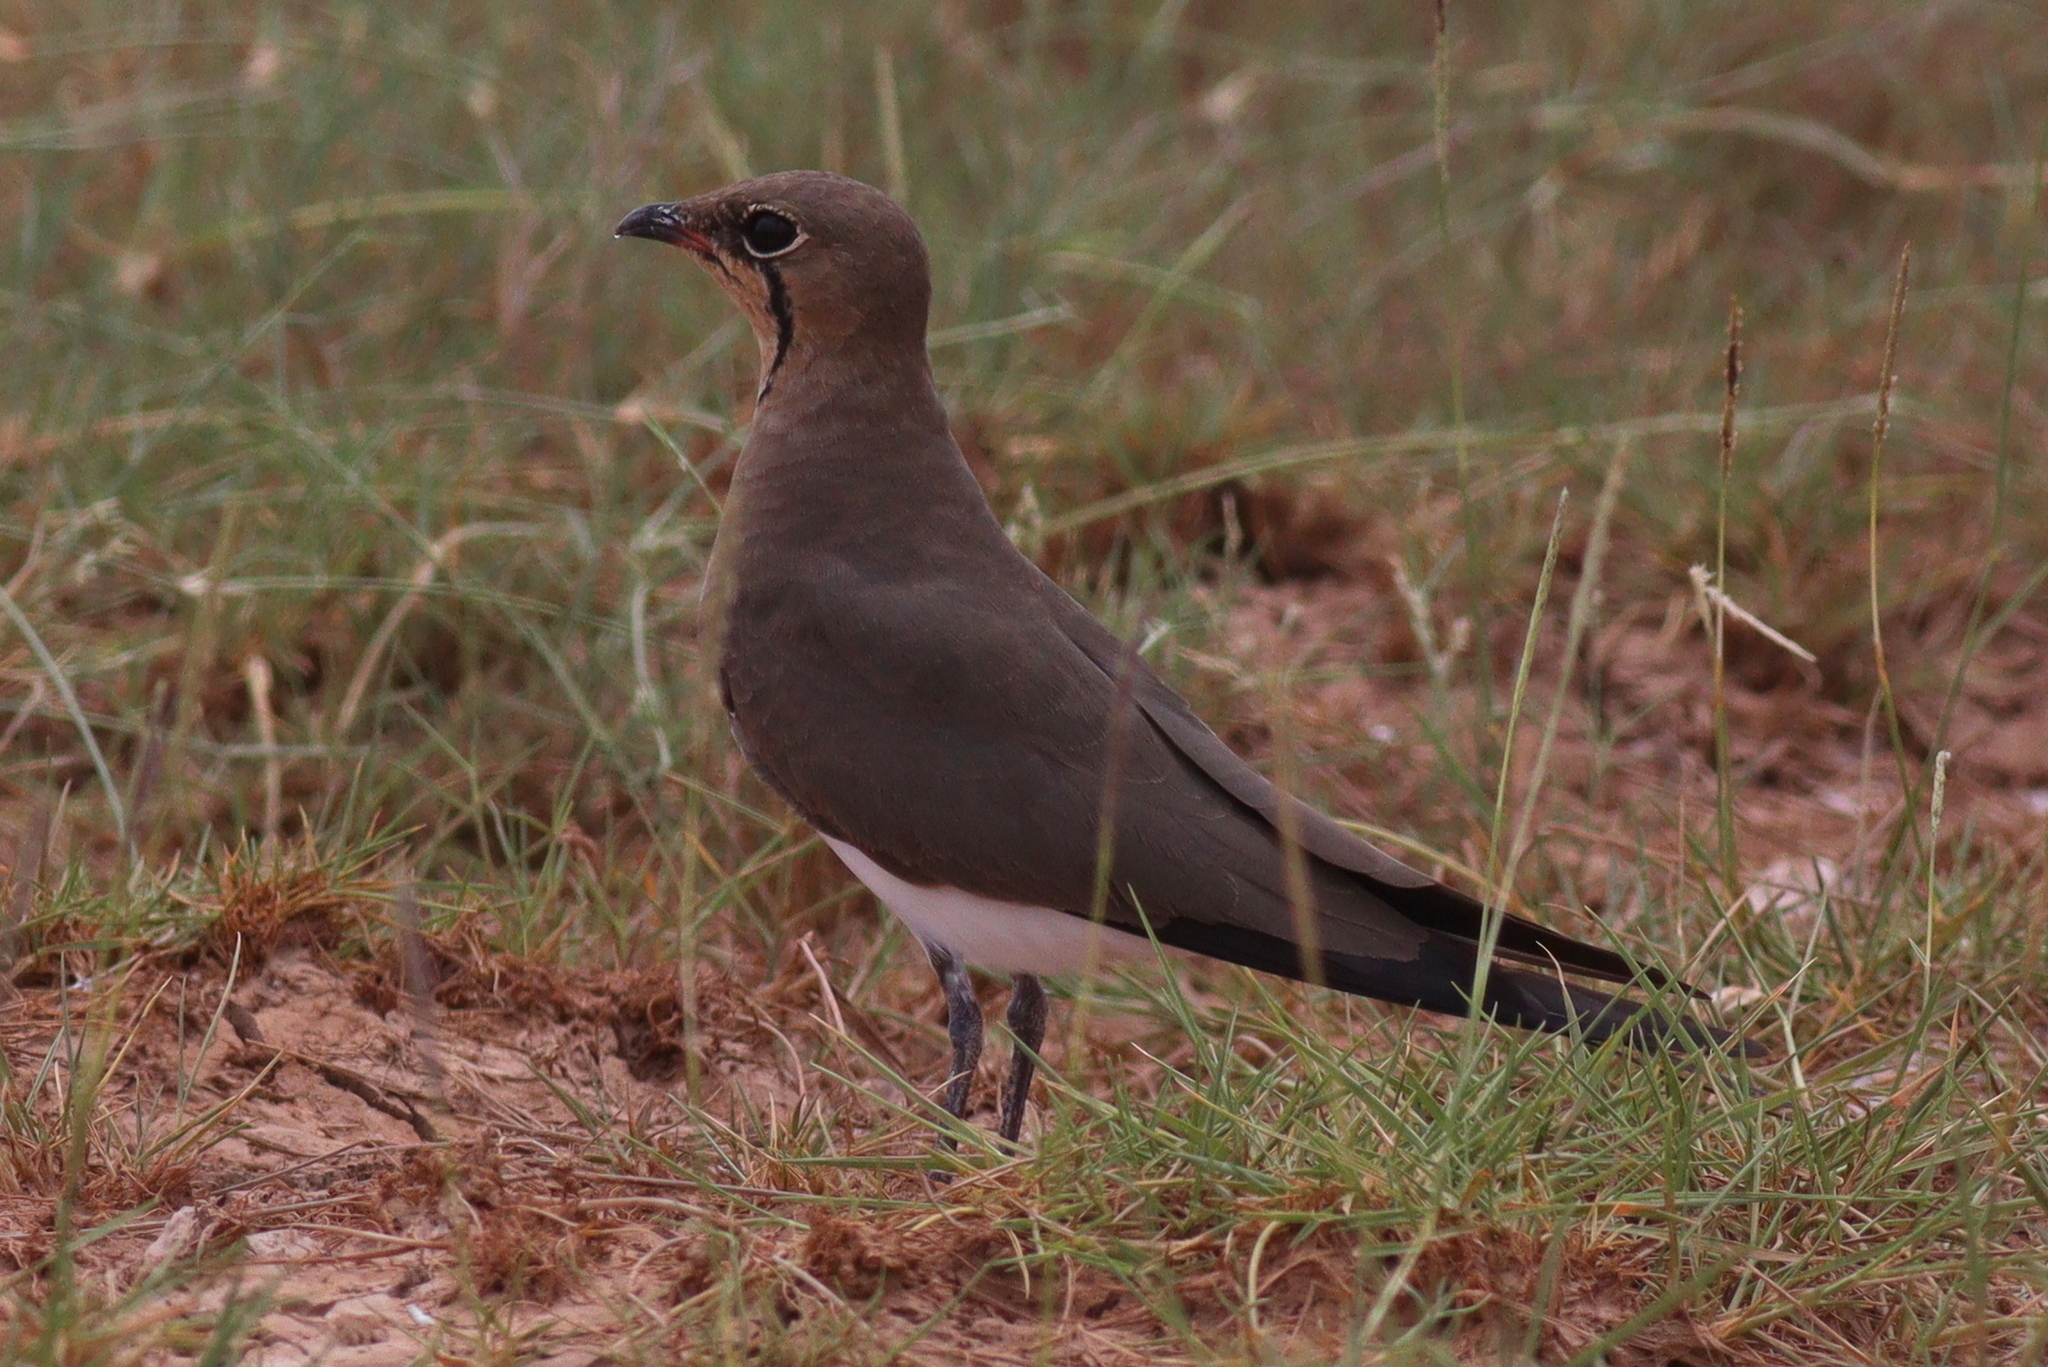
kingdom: Animalia
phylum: Chordata
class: Aves
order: Charadriiformes
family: Glareolidae
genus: Glareola
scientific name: Glareola pratincola
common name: Collared pratincole
